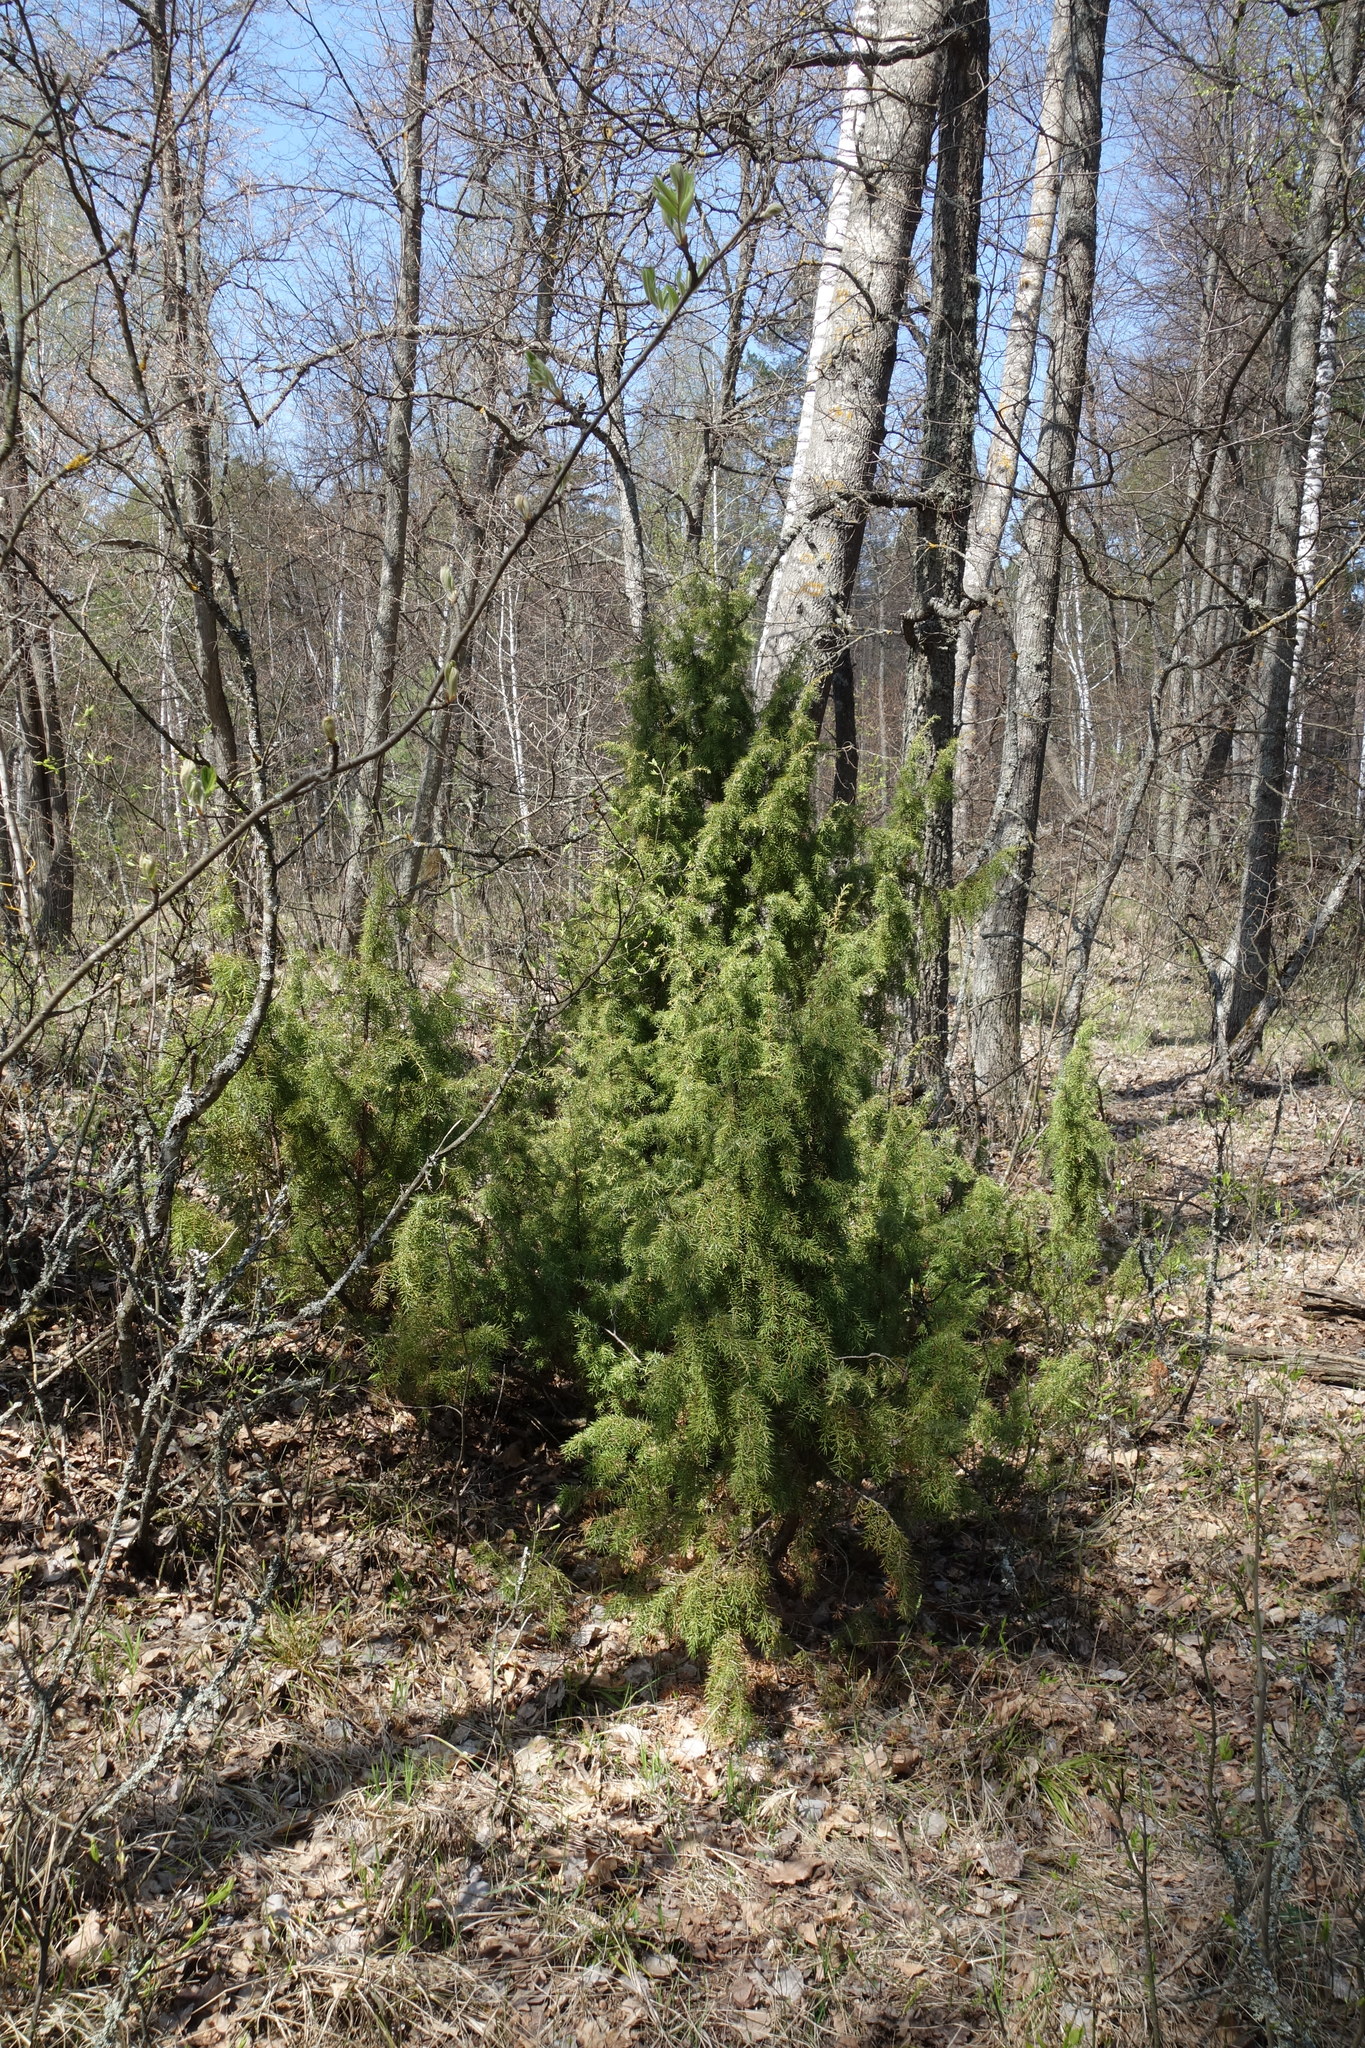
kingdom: Plantae
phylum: Tracheophyta
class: Pinopsida
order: Pinales
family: Cupressaceae
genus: Juniperus
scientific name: Juniperus communis
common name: Common juniper
